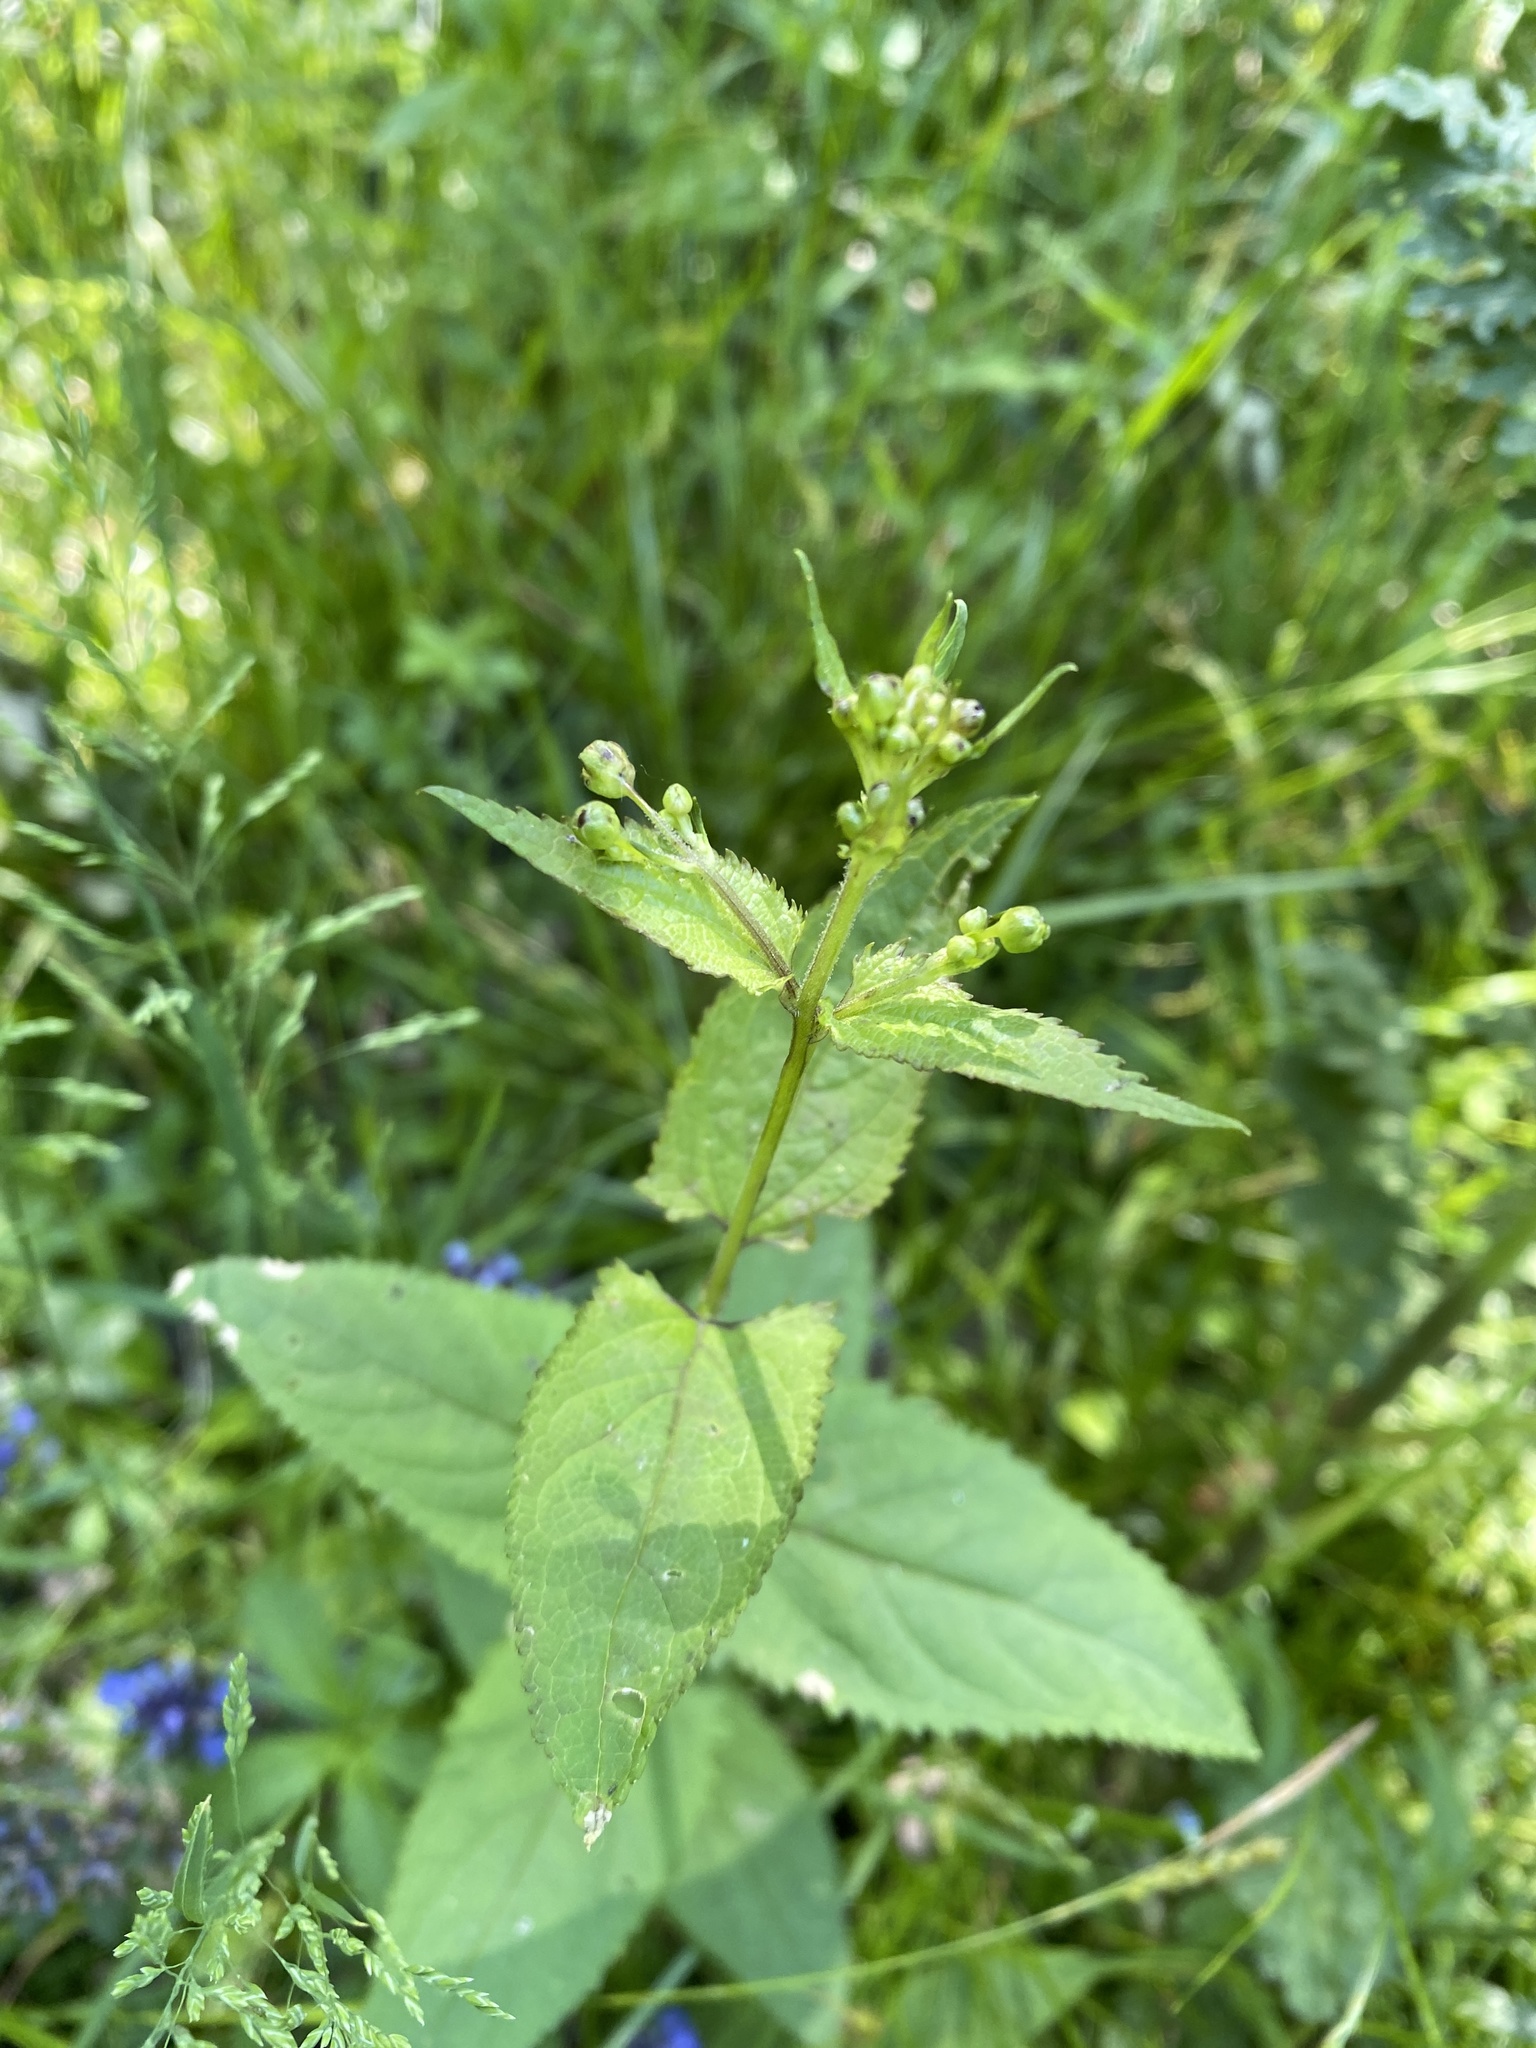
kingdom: Plantae
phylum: Tracheophyta
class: Magnoliopsida
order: Lamiales
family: Scrophulariaceae
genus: Scrophularia
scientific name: Scrophularia nodosa
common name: Common figwort
